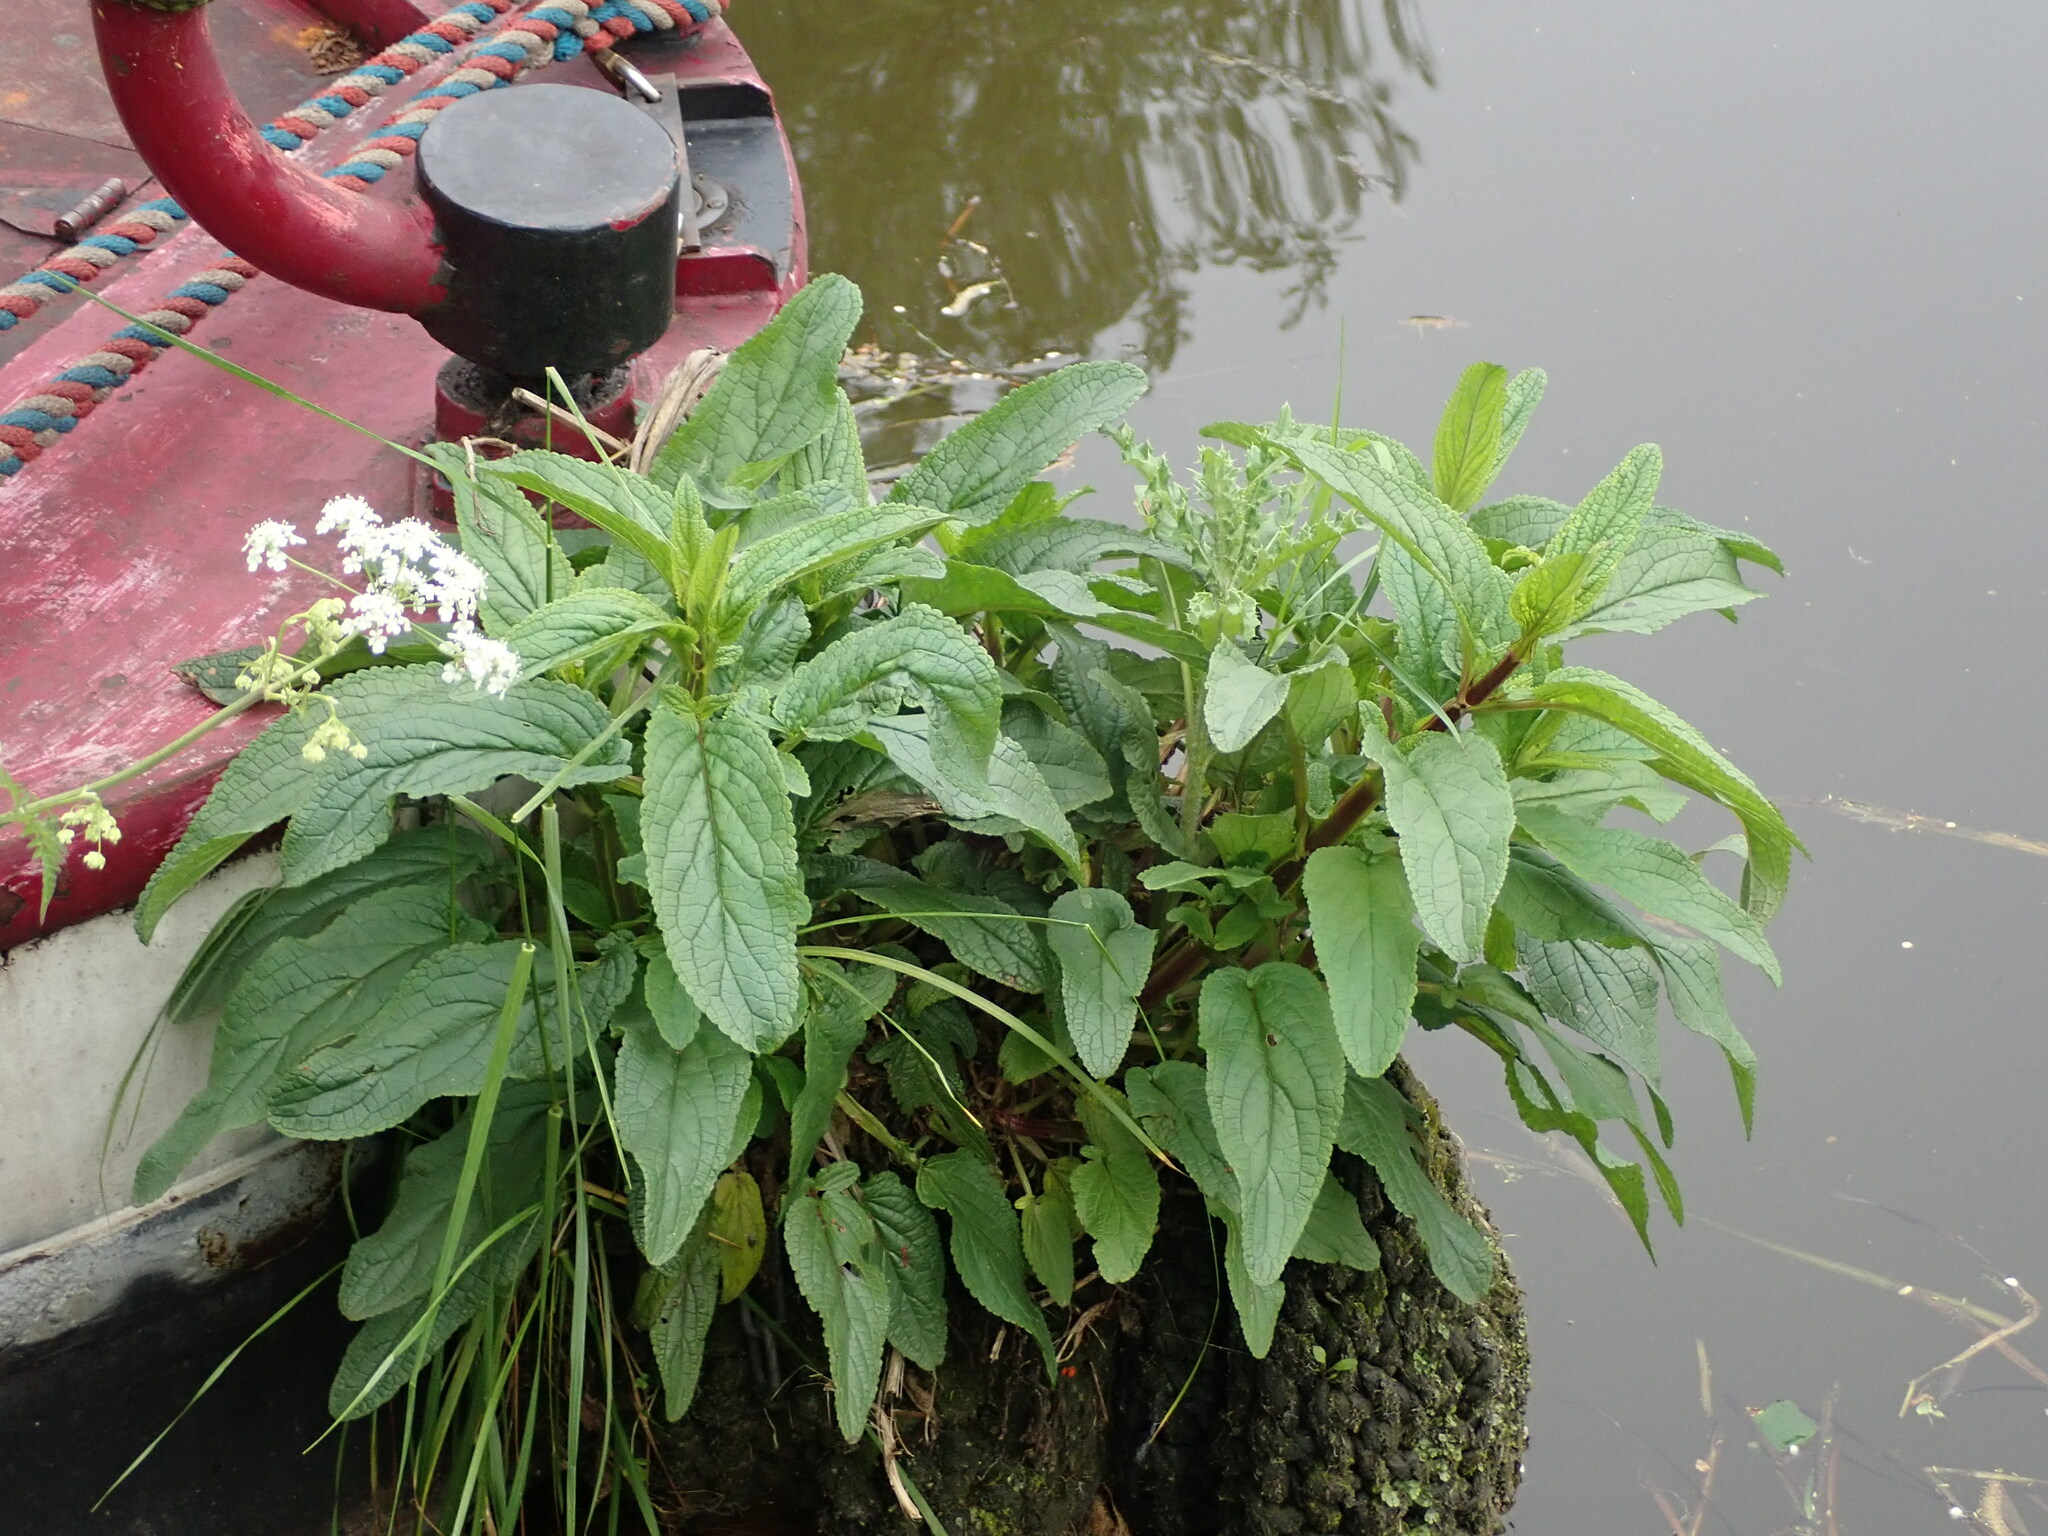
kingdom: Plantae
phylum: Tracheophyta
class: Magnoliopsida
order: Lamiales
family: Scrophulariaceae
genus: Scrophularia
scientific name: Scrophularia auriculata
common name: Water betony
